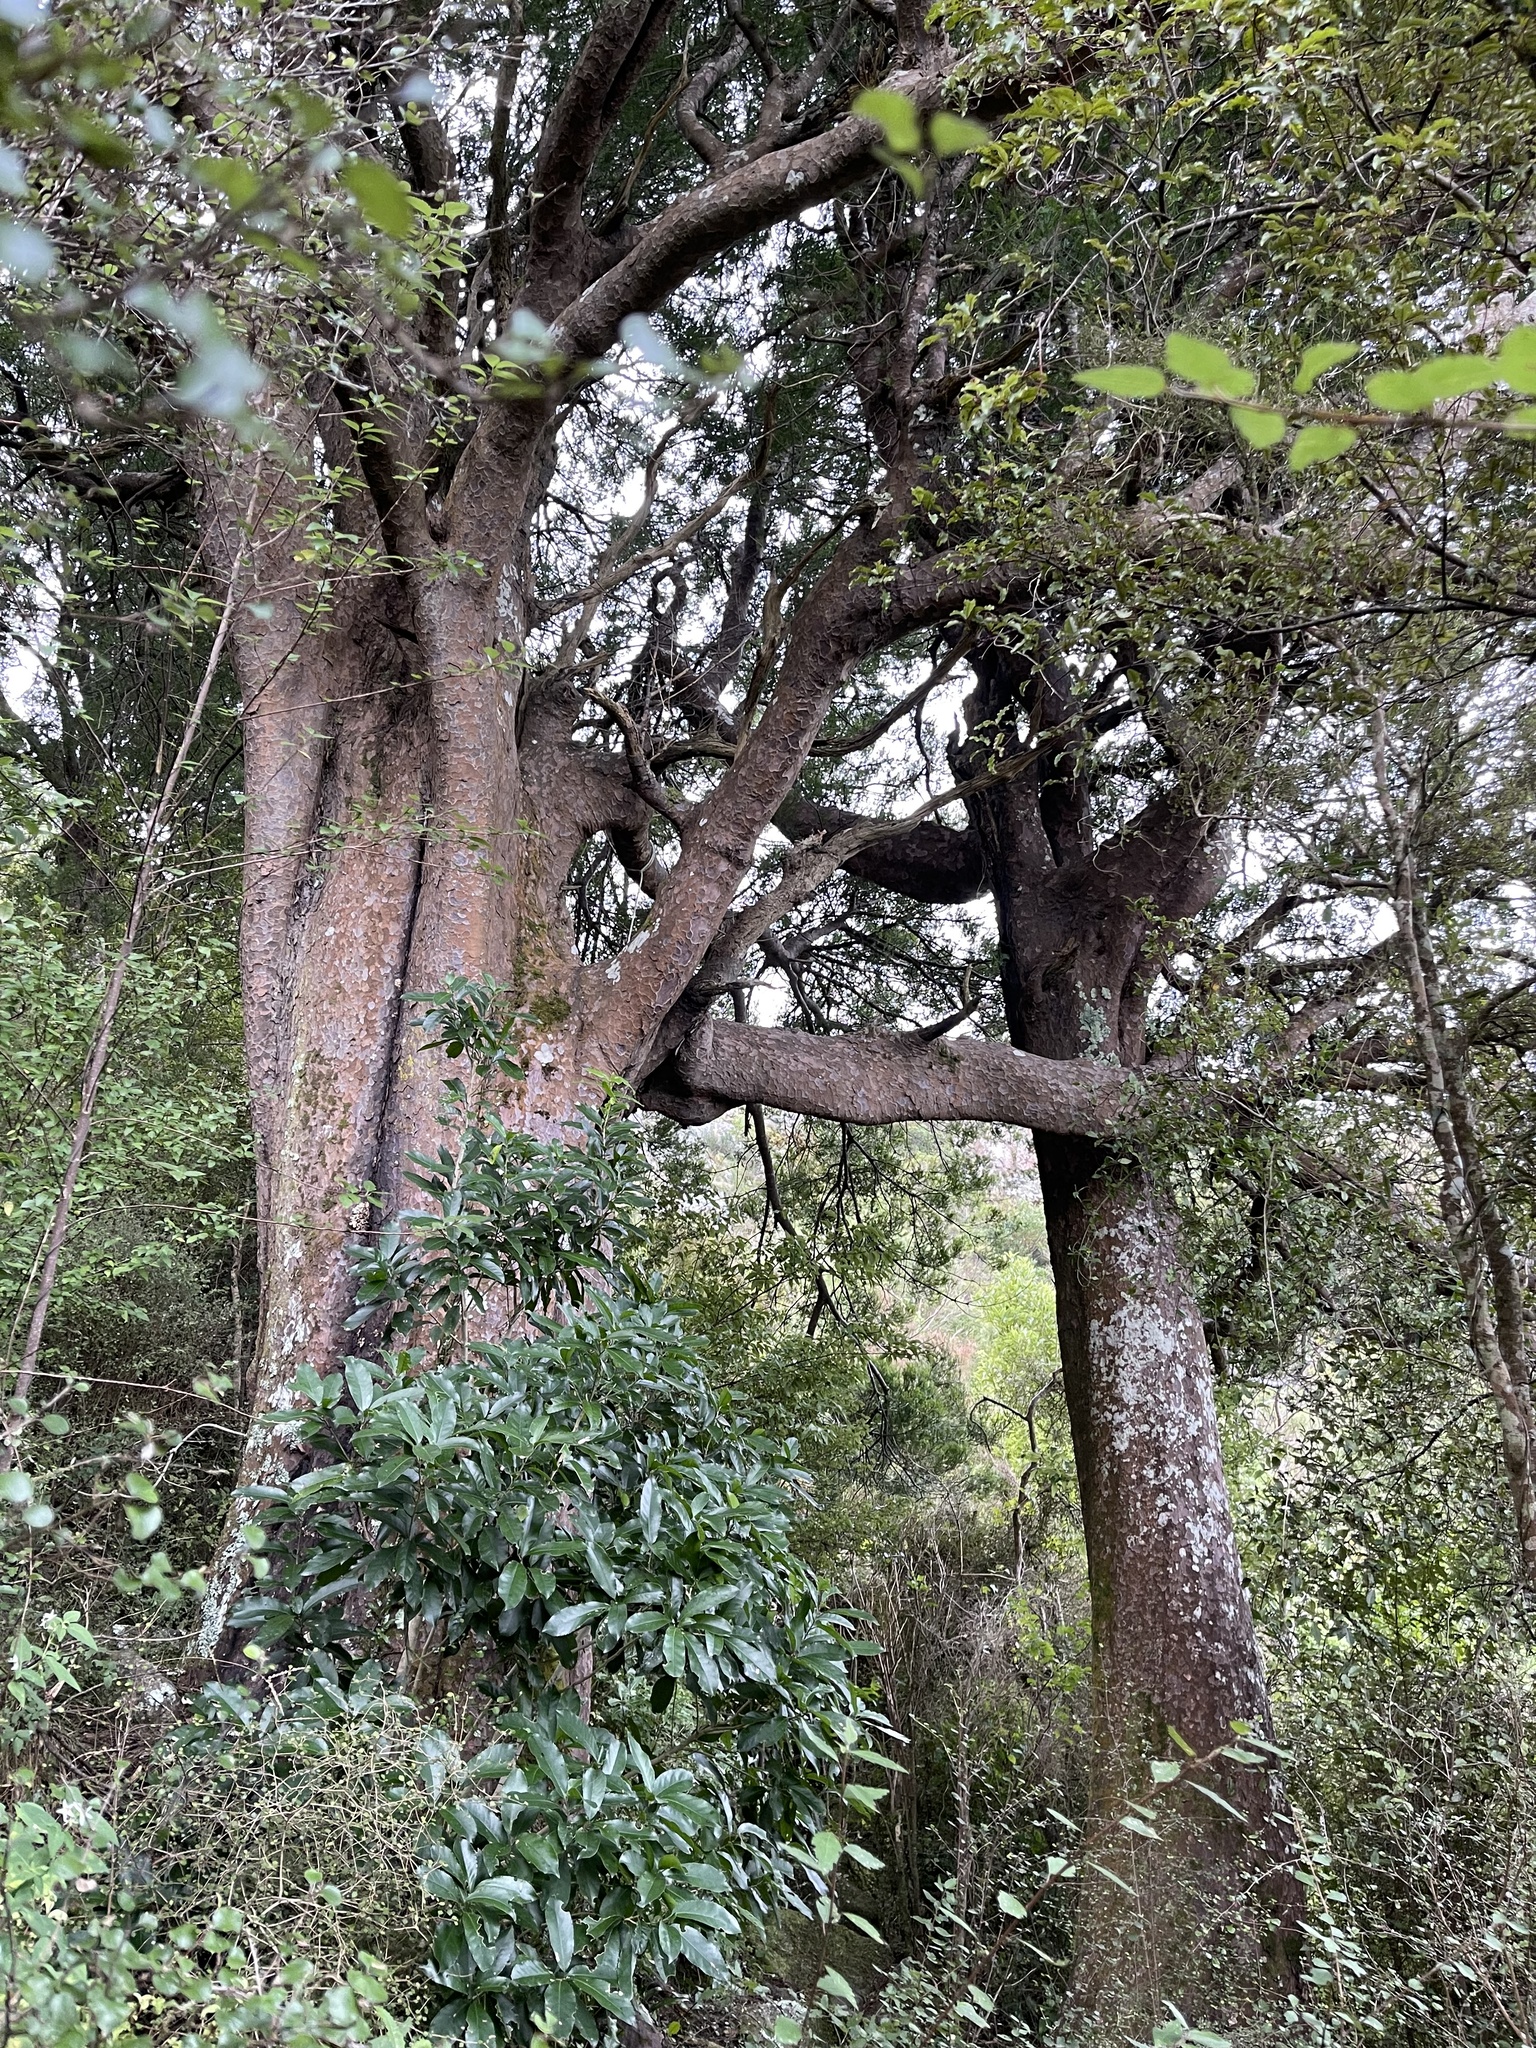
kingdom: Plantae
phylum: Tracheophyta
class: Pinopsida
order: Pinales
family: Podocarpaceae
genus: Prumnopitys
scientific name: Prumnopitys taxifolia
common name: Matai
